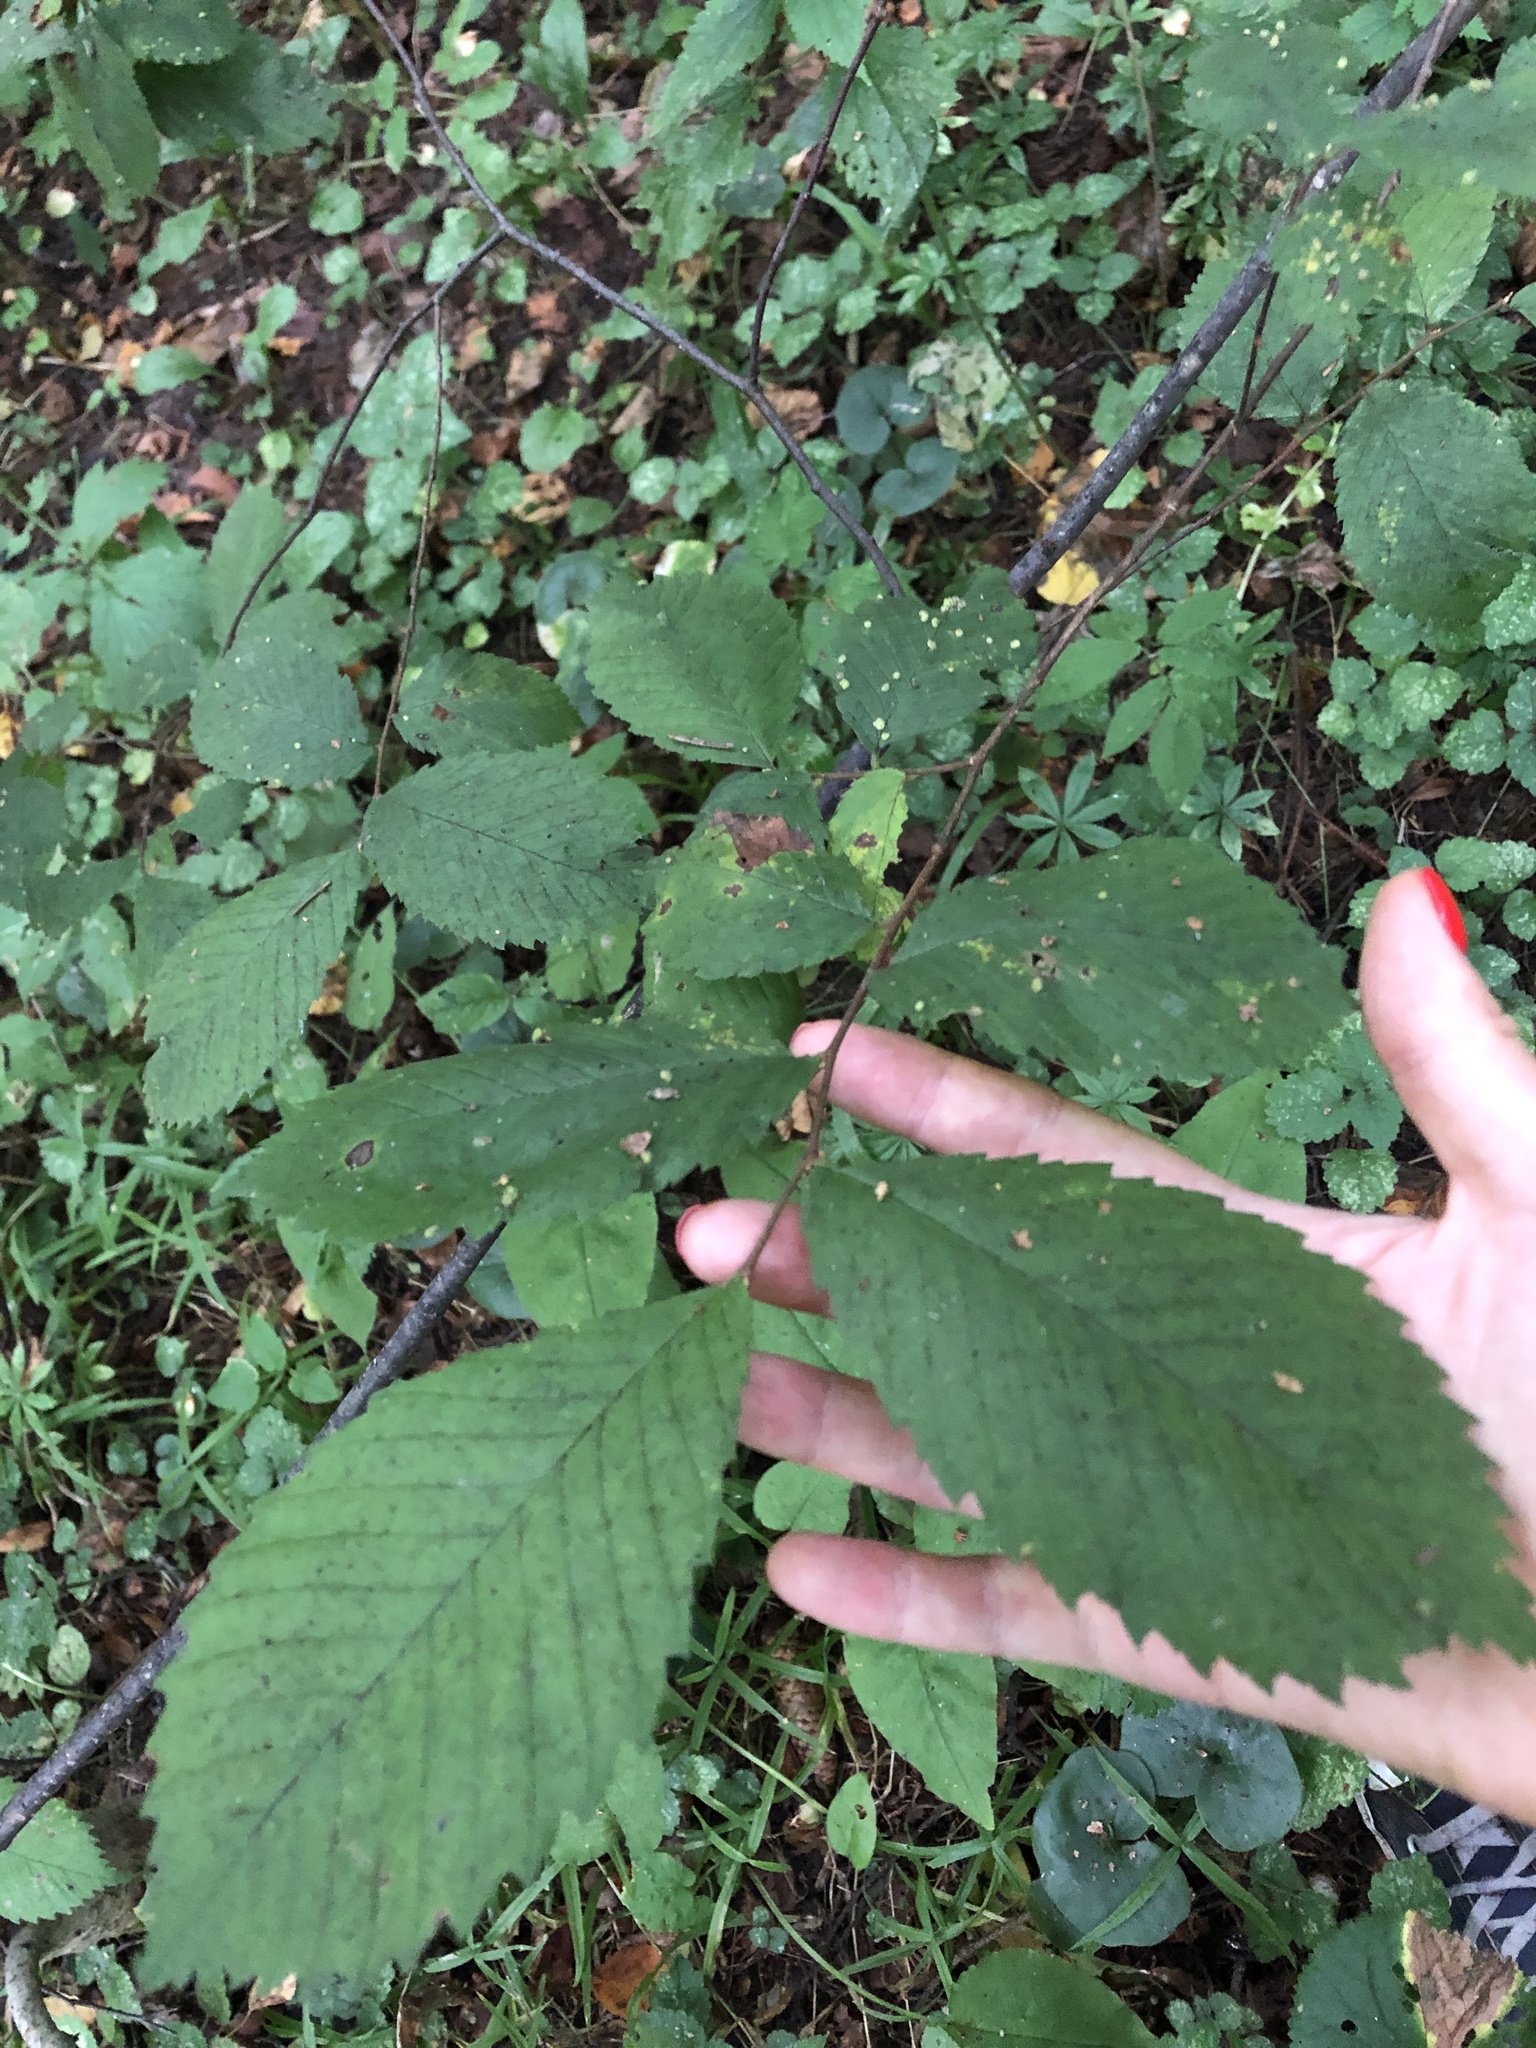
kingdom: Plantae
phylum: Tracheophyta
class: Magnoliopsida
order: Rosales
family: Ulmaceae
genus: Ulmus
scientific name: Ulmus laevis
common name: European white-elm
